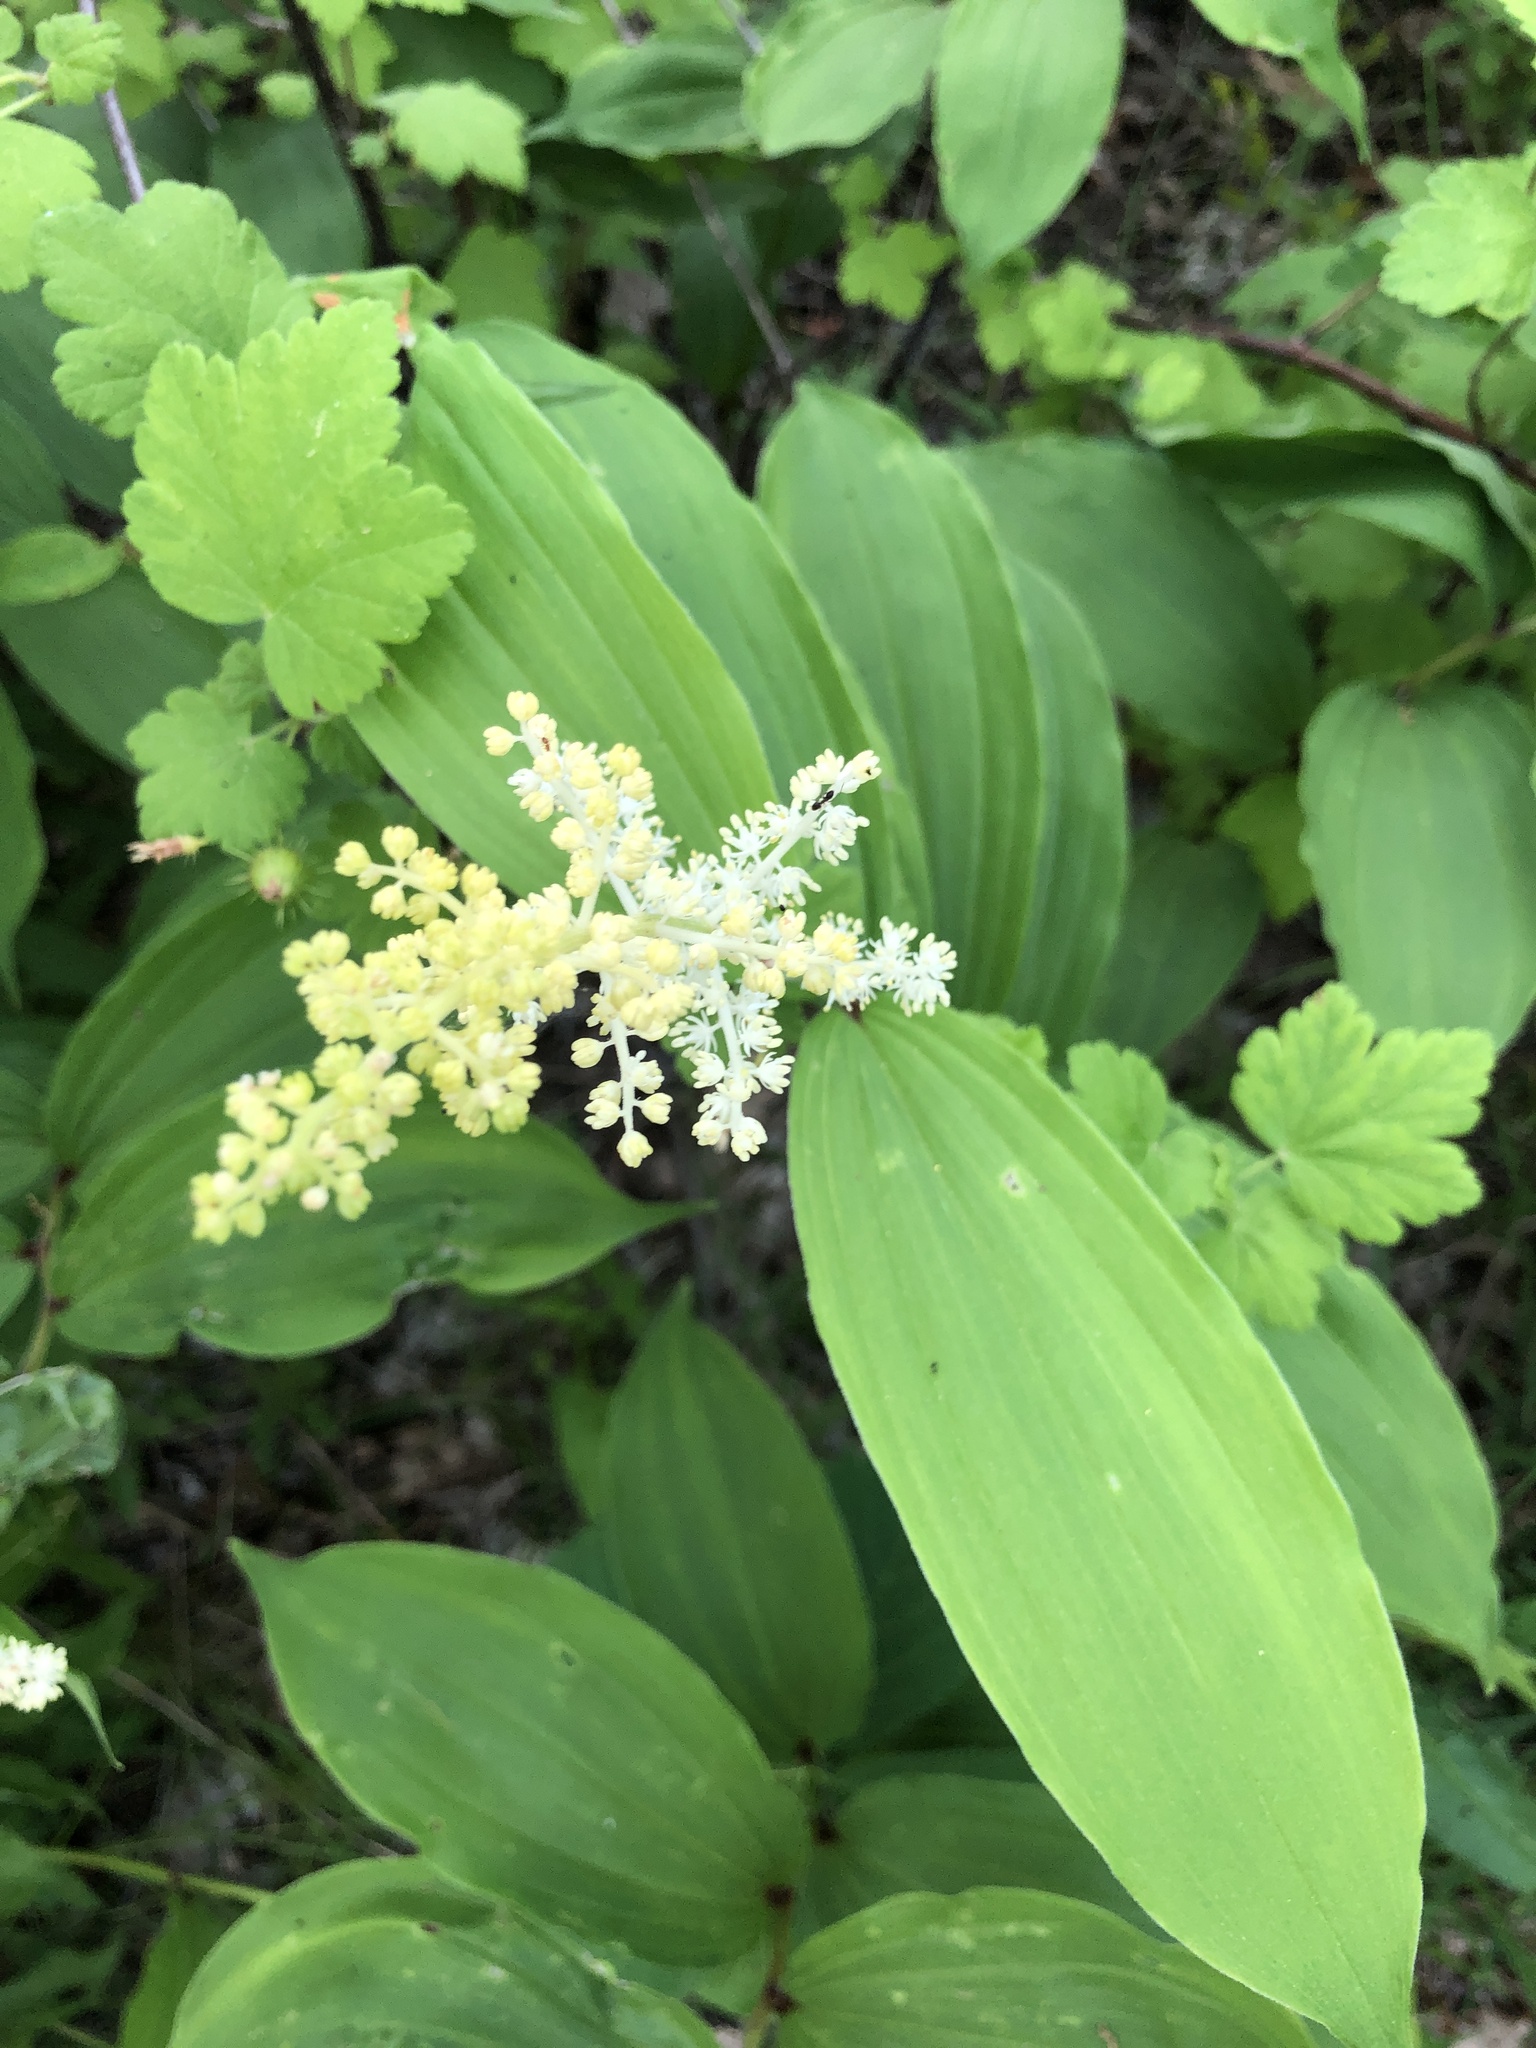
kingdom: Plantae
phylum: Tracheophyta
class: Liliopsida
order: Asparagales
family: Asparagaceae
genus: Maianthemum
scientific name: Maianthemum racemosum
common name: False spikenard
